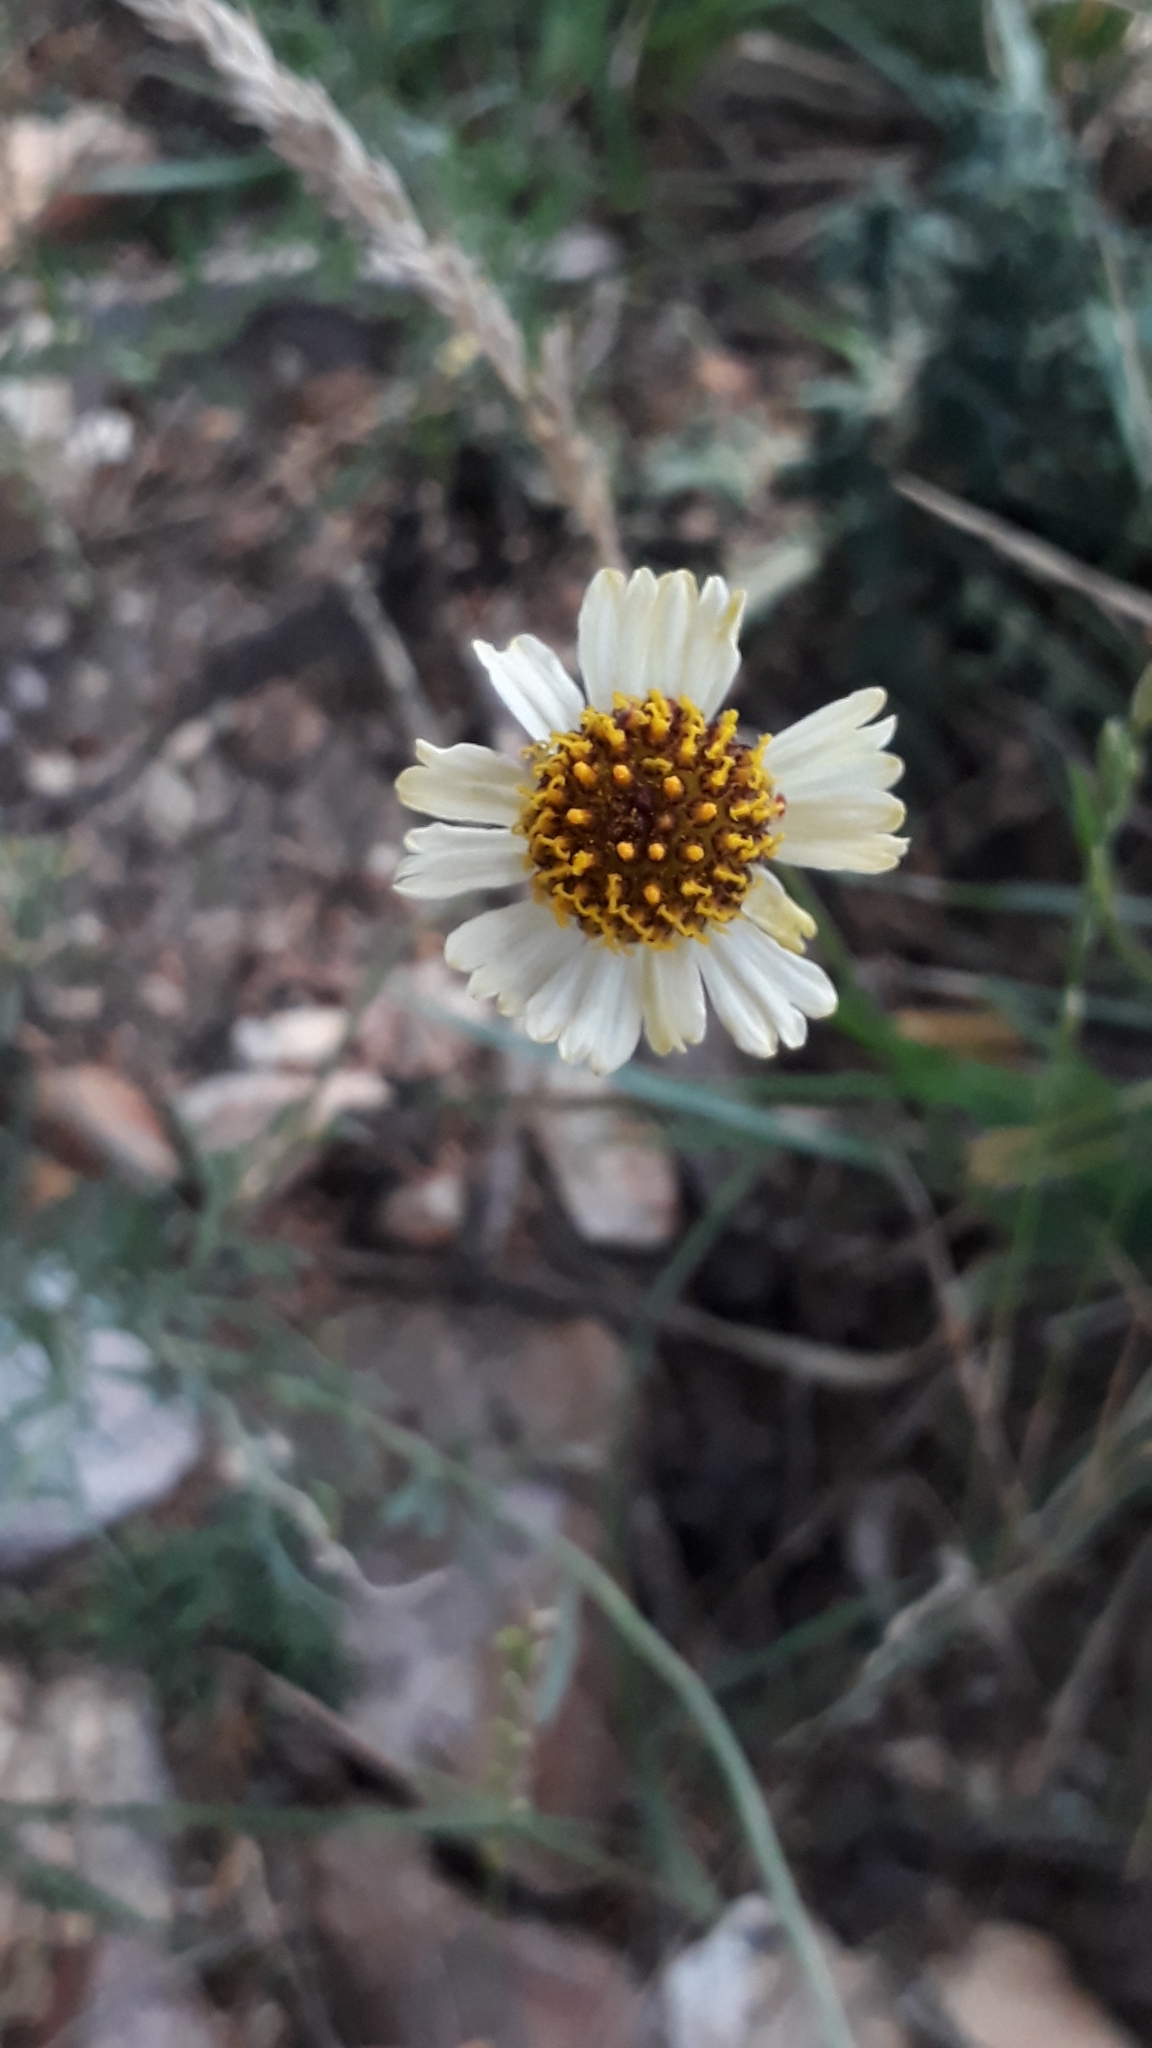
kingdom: Plantae
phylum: Tracheophyta
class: Magnoliopsida
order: Asterales
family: Asteraceae
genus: Helenium
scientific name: Helenium uniflorum
